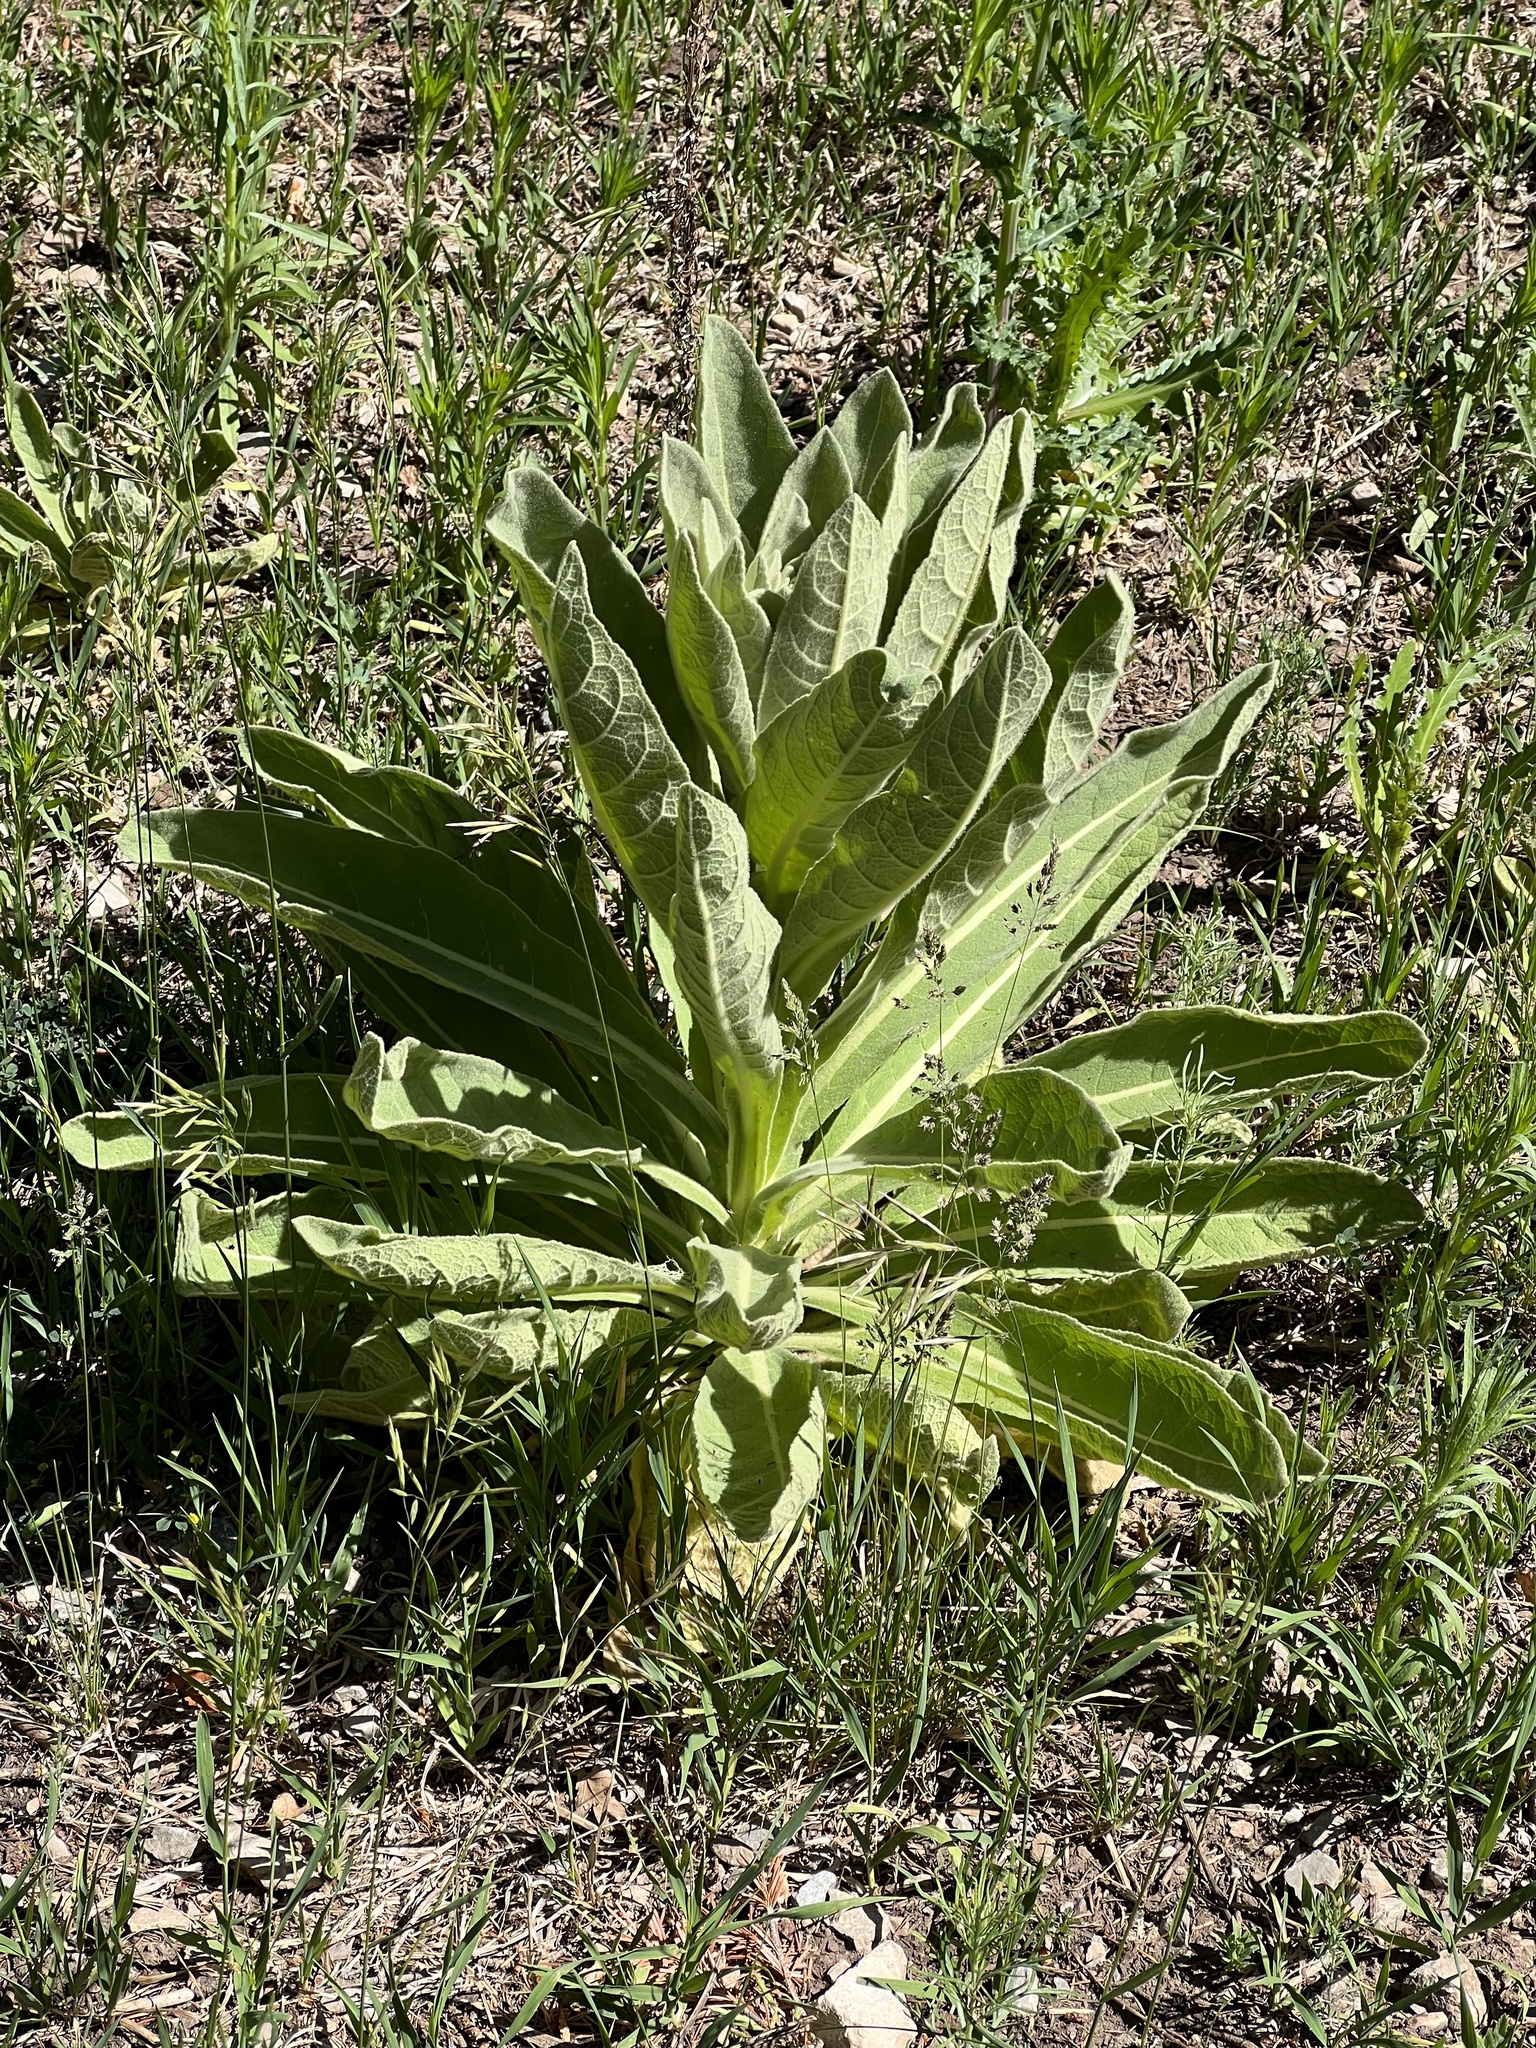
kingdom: Plantae
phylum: Tracheophyta
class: Magnoliopsida
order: Lamiales
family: Scrophulariaceae
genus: Verbascum
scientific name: Verbascum thapsus
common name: Common mullein
